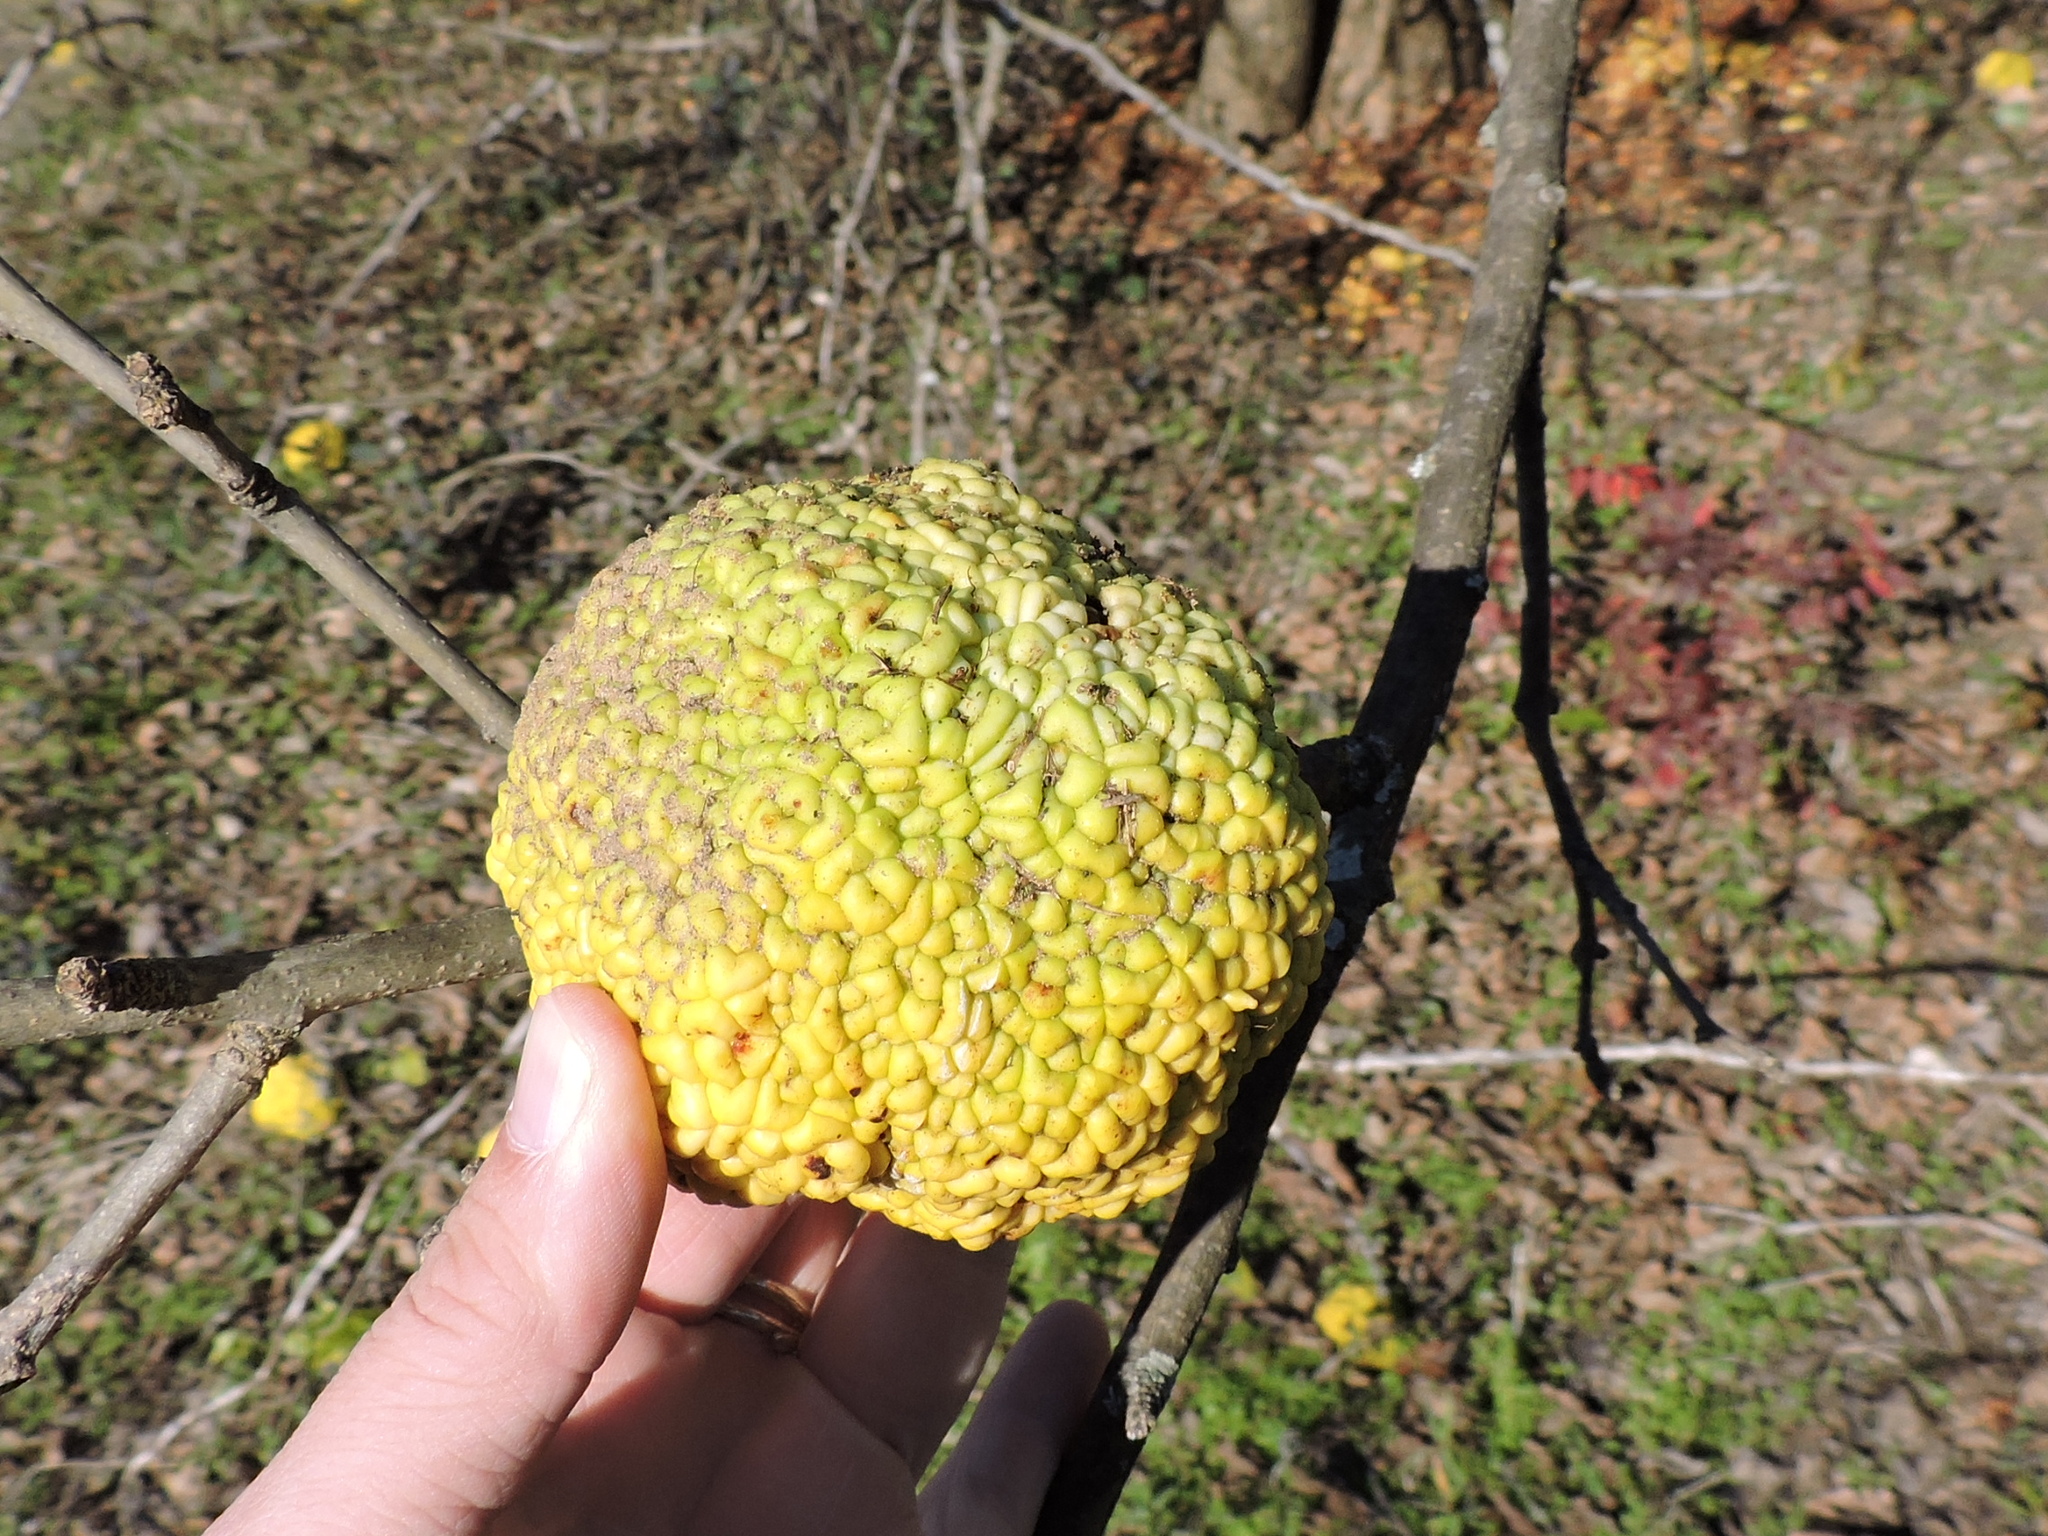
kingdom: Plantae
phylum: Tracheophyta
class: Magnoliopsida
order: Rosales
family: Moraceae
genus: Maclura
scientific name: Maclura pomifera
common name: Osage-orange
